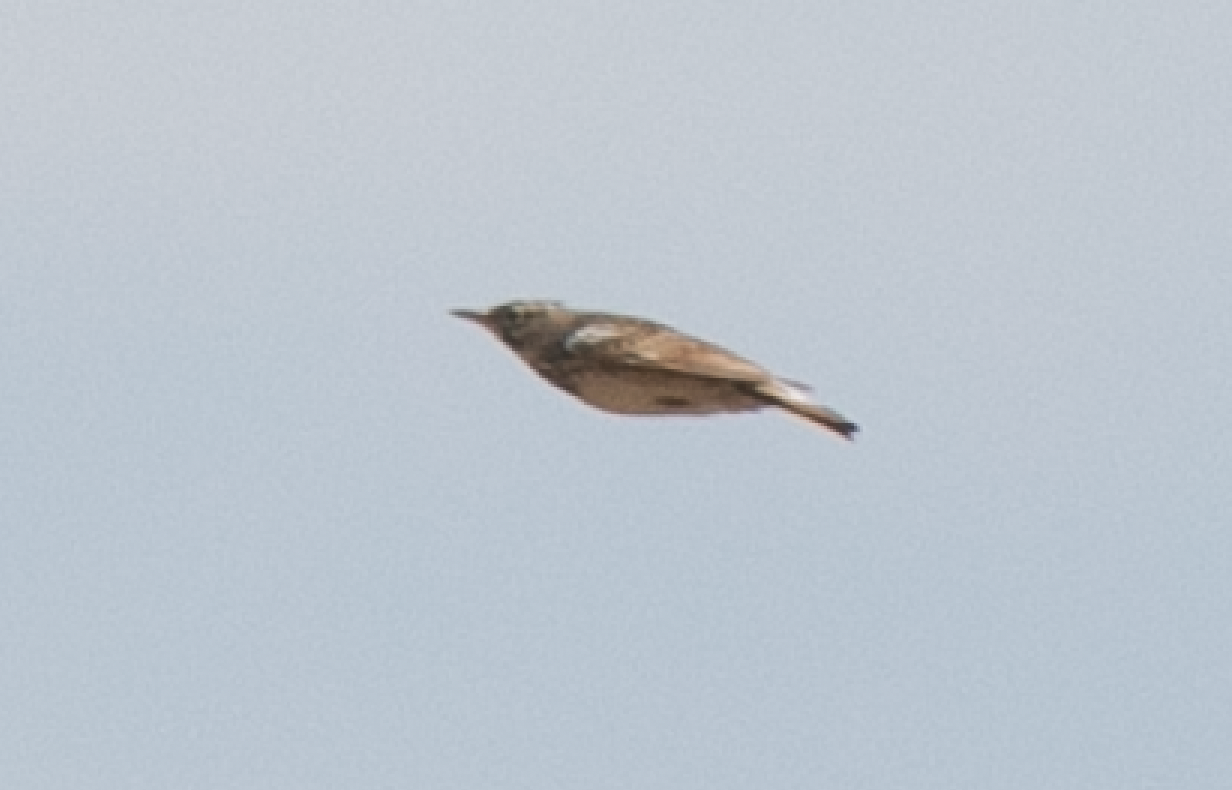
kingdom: Animalia
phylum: Chordata
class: Aves
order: Passeriformes
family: Alaudidae
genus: Galerida
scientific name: Galerida cristata
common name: Crested lark
